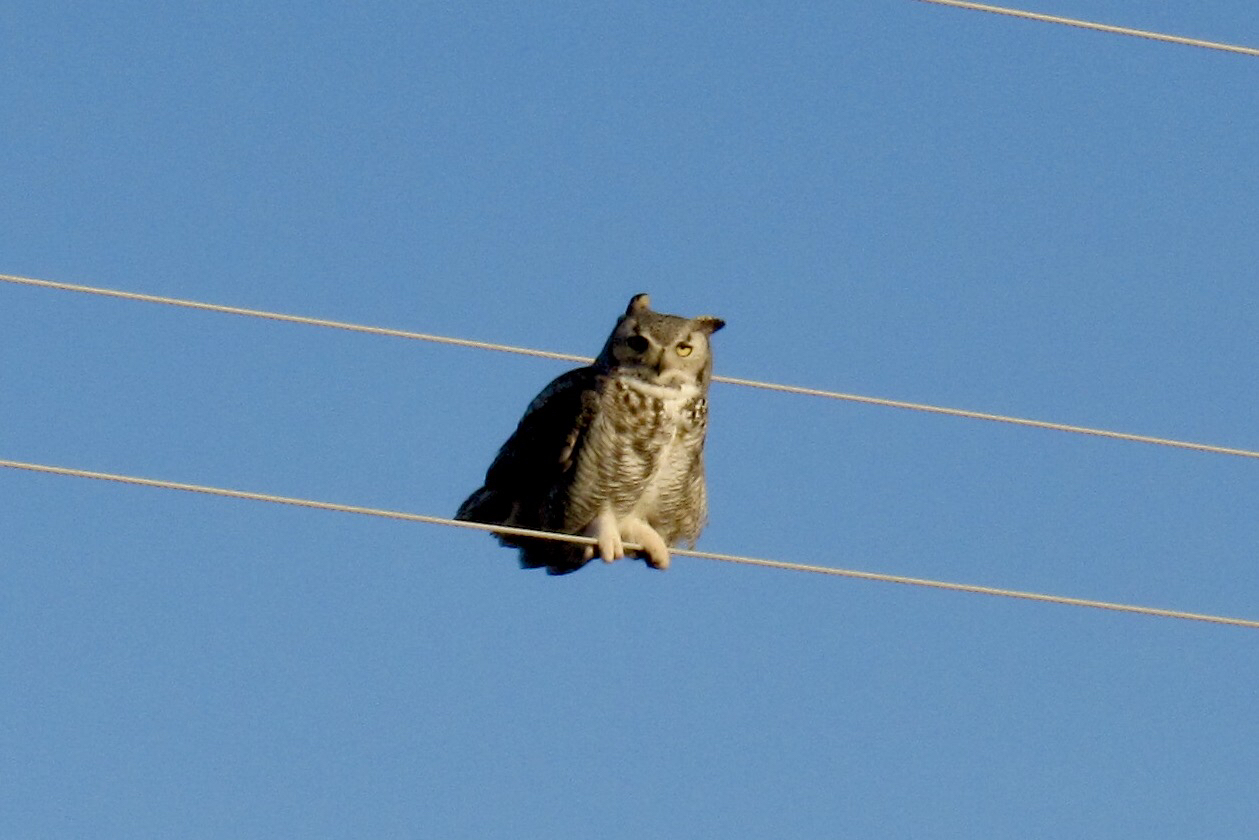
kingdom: Animalia
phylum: Chordata
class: Aves
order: Strigiformes
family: Strigidae
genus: Bubo
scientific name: Bubo virginianus
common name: Great horned owl
